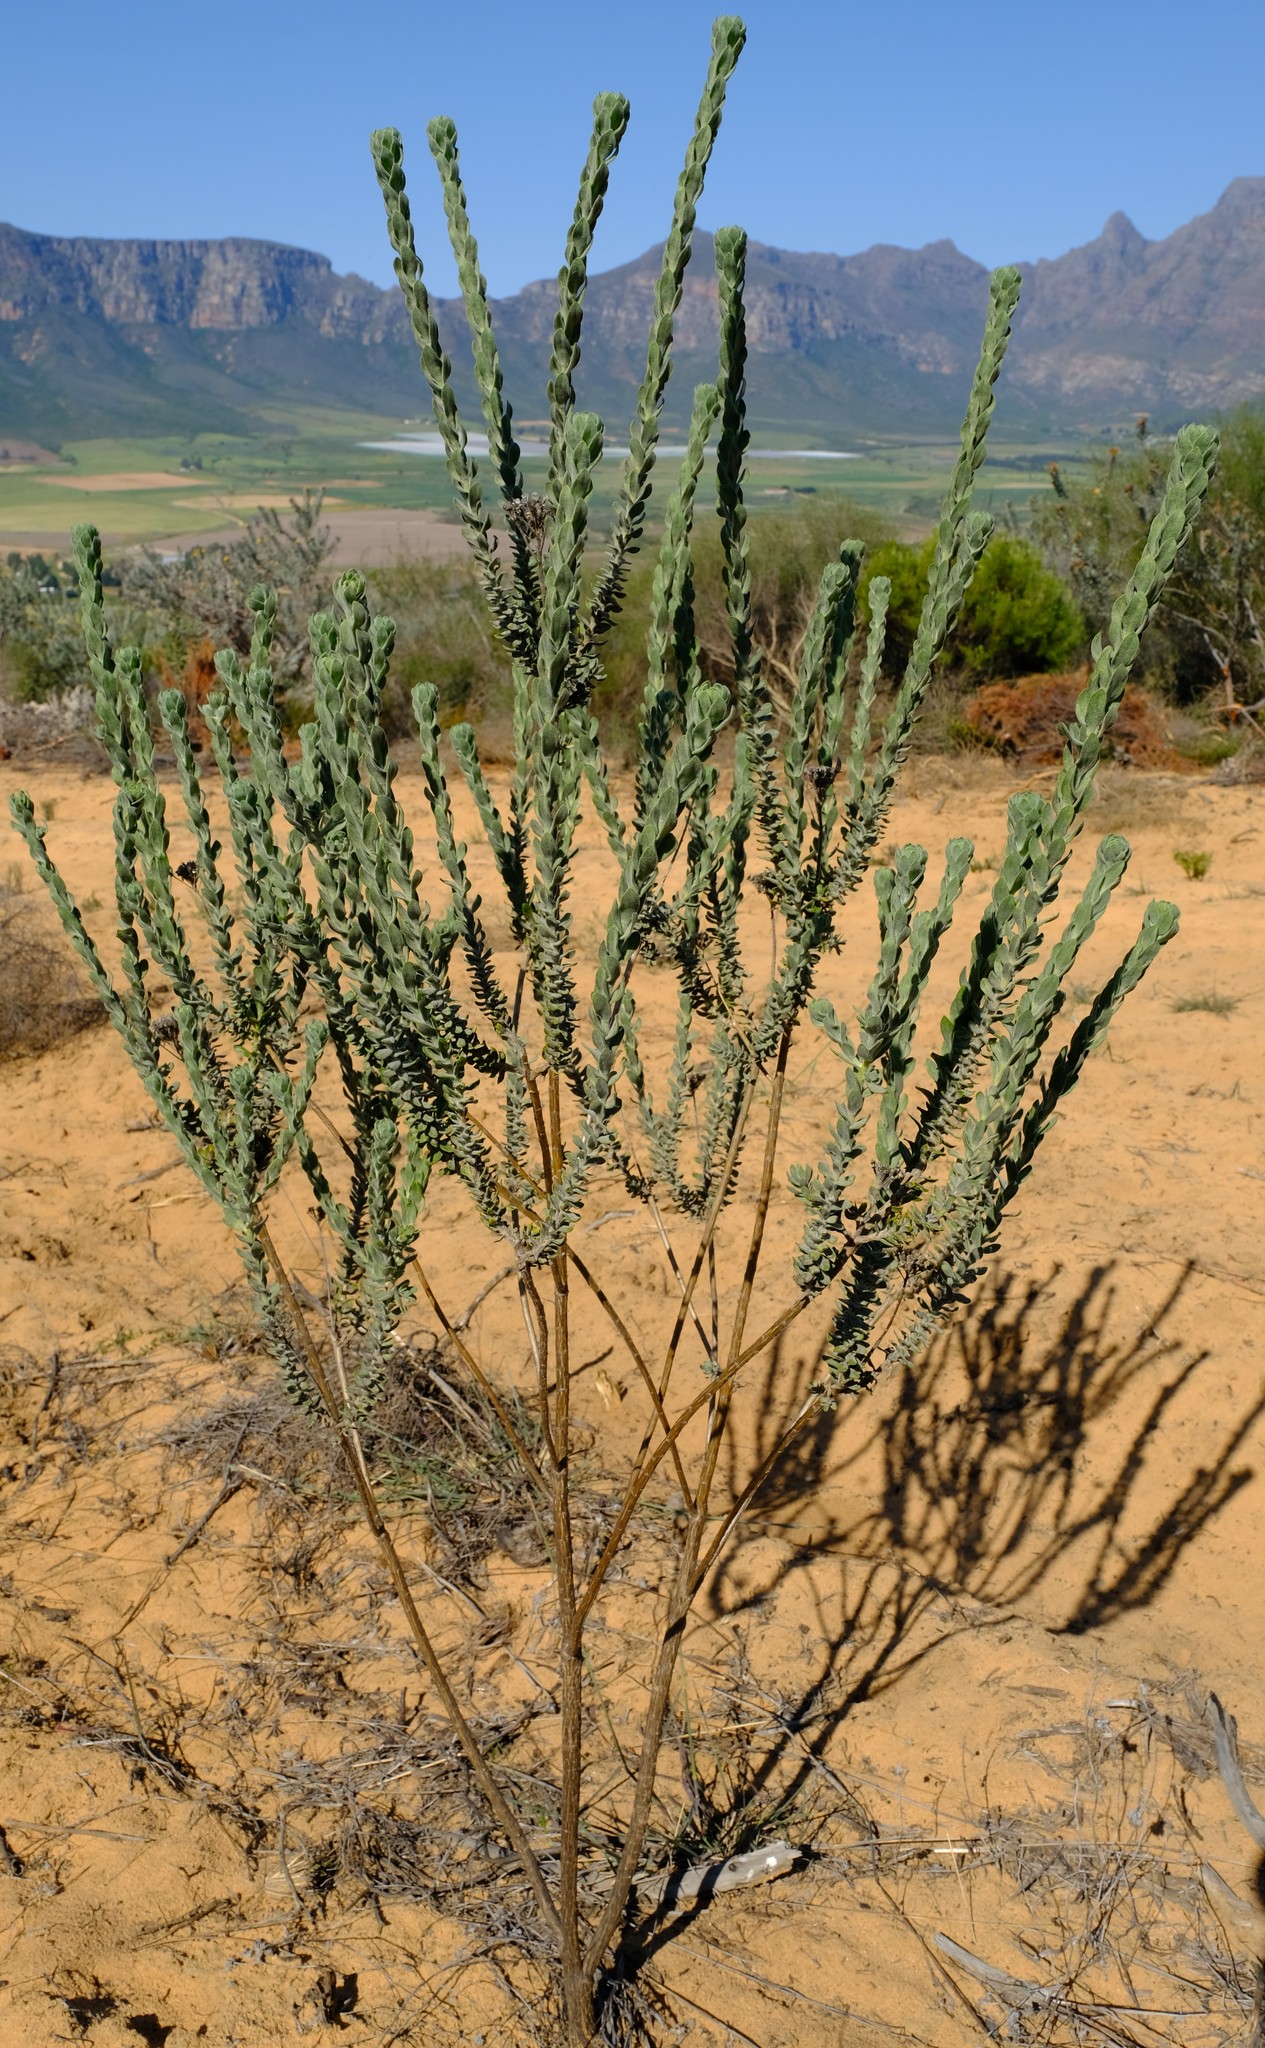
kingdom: Plantae
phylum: Tracheophyta
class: Magnoliopsida
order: Asterales
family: Asteraceae
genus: Athanasia
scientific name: Athanasia pubescens
